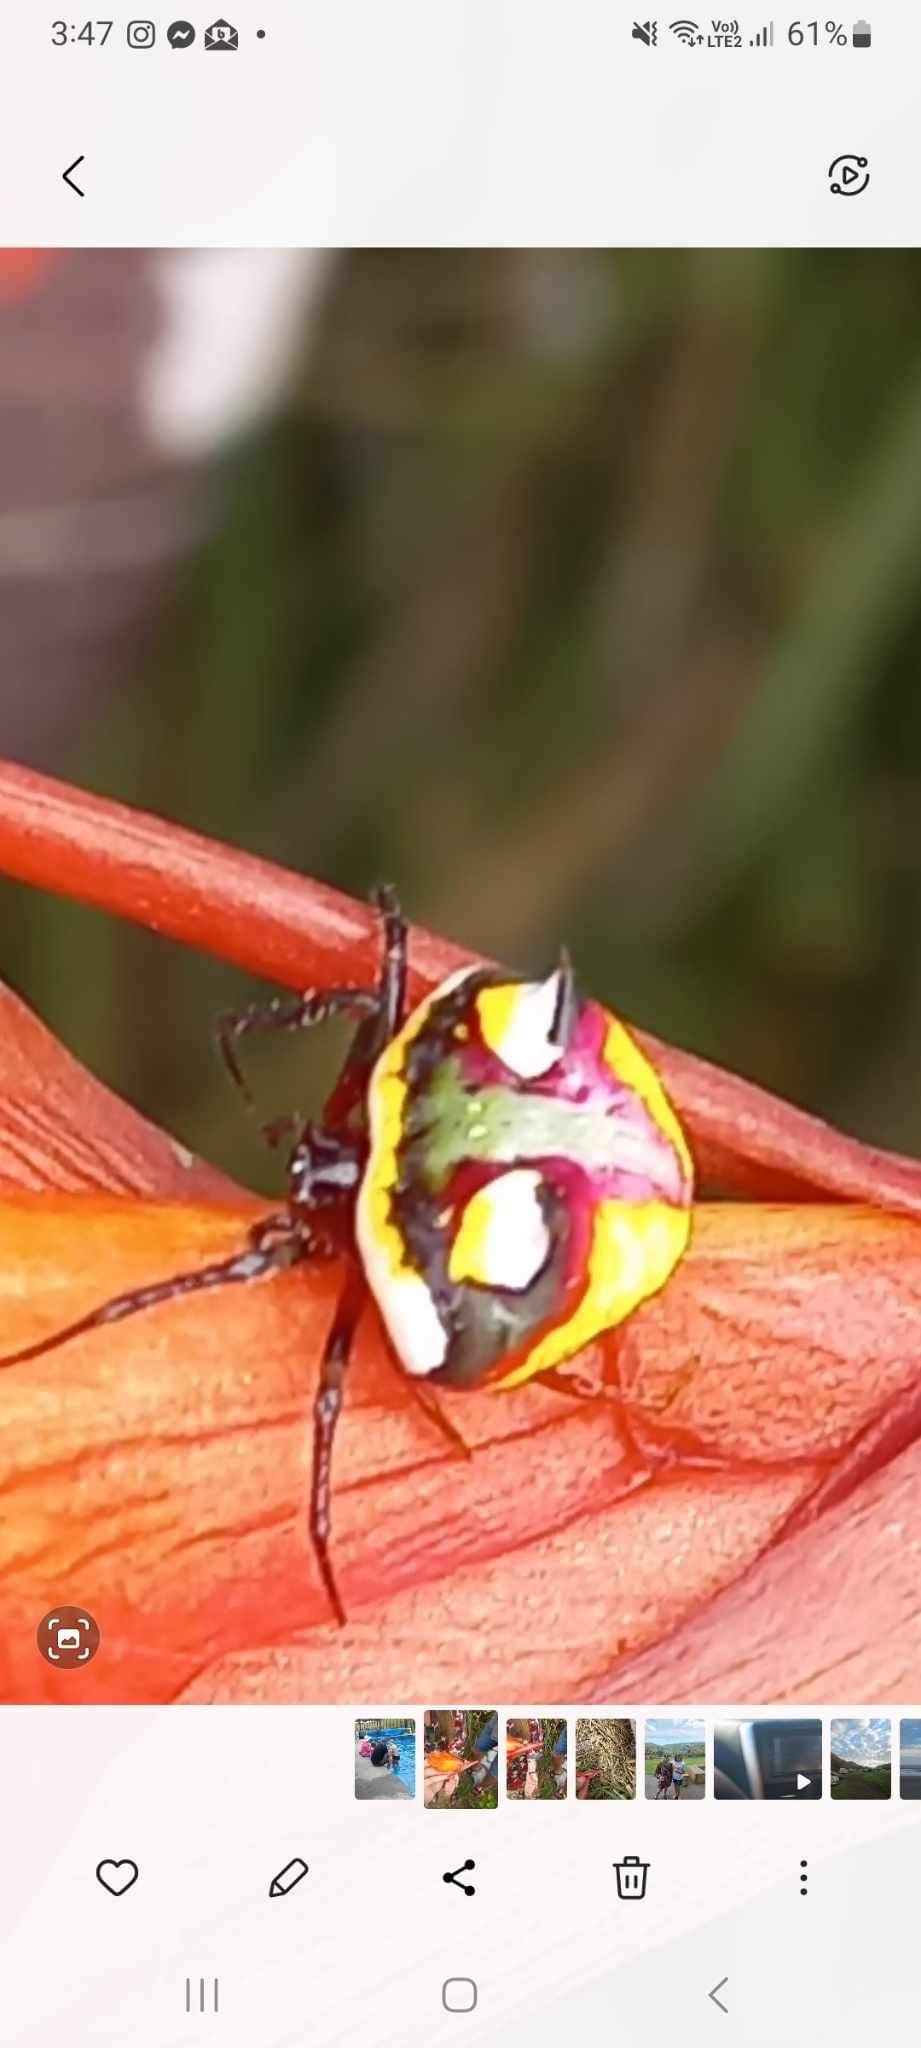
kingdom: Animalia
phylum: Arthropoda
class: Arachnida
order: Araneae
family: Araneidae
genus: Poecilopachys
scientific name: Poecilopachys australasia
